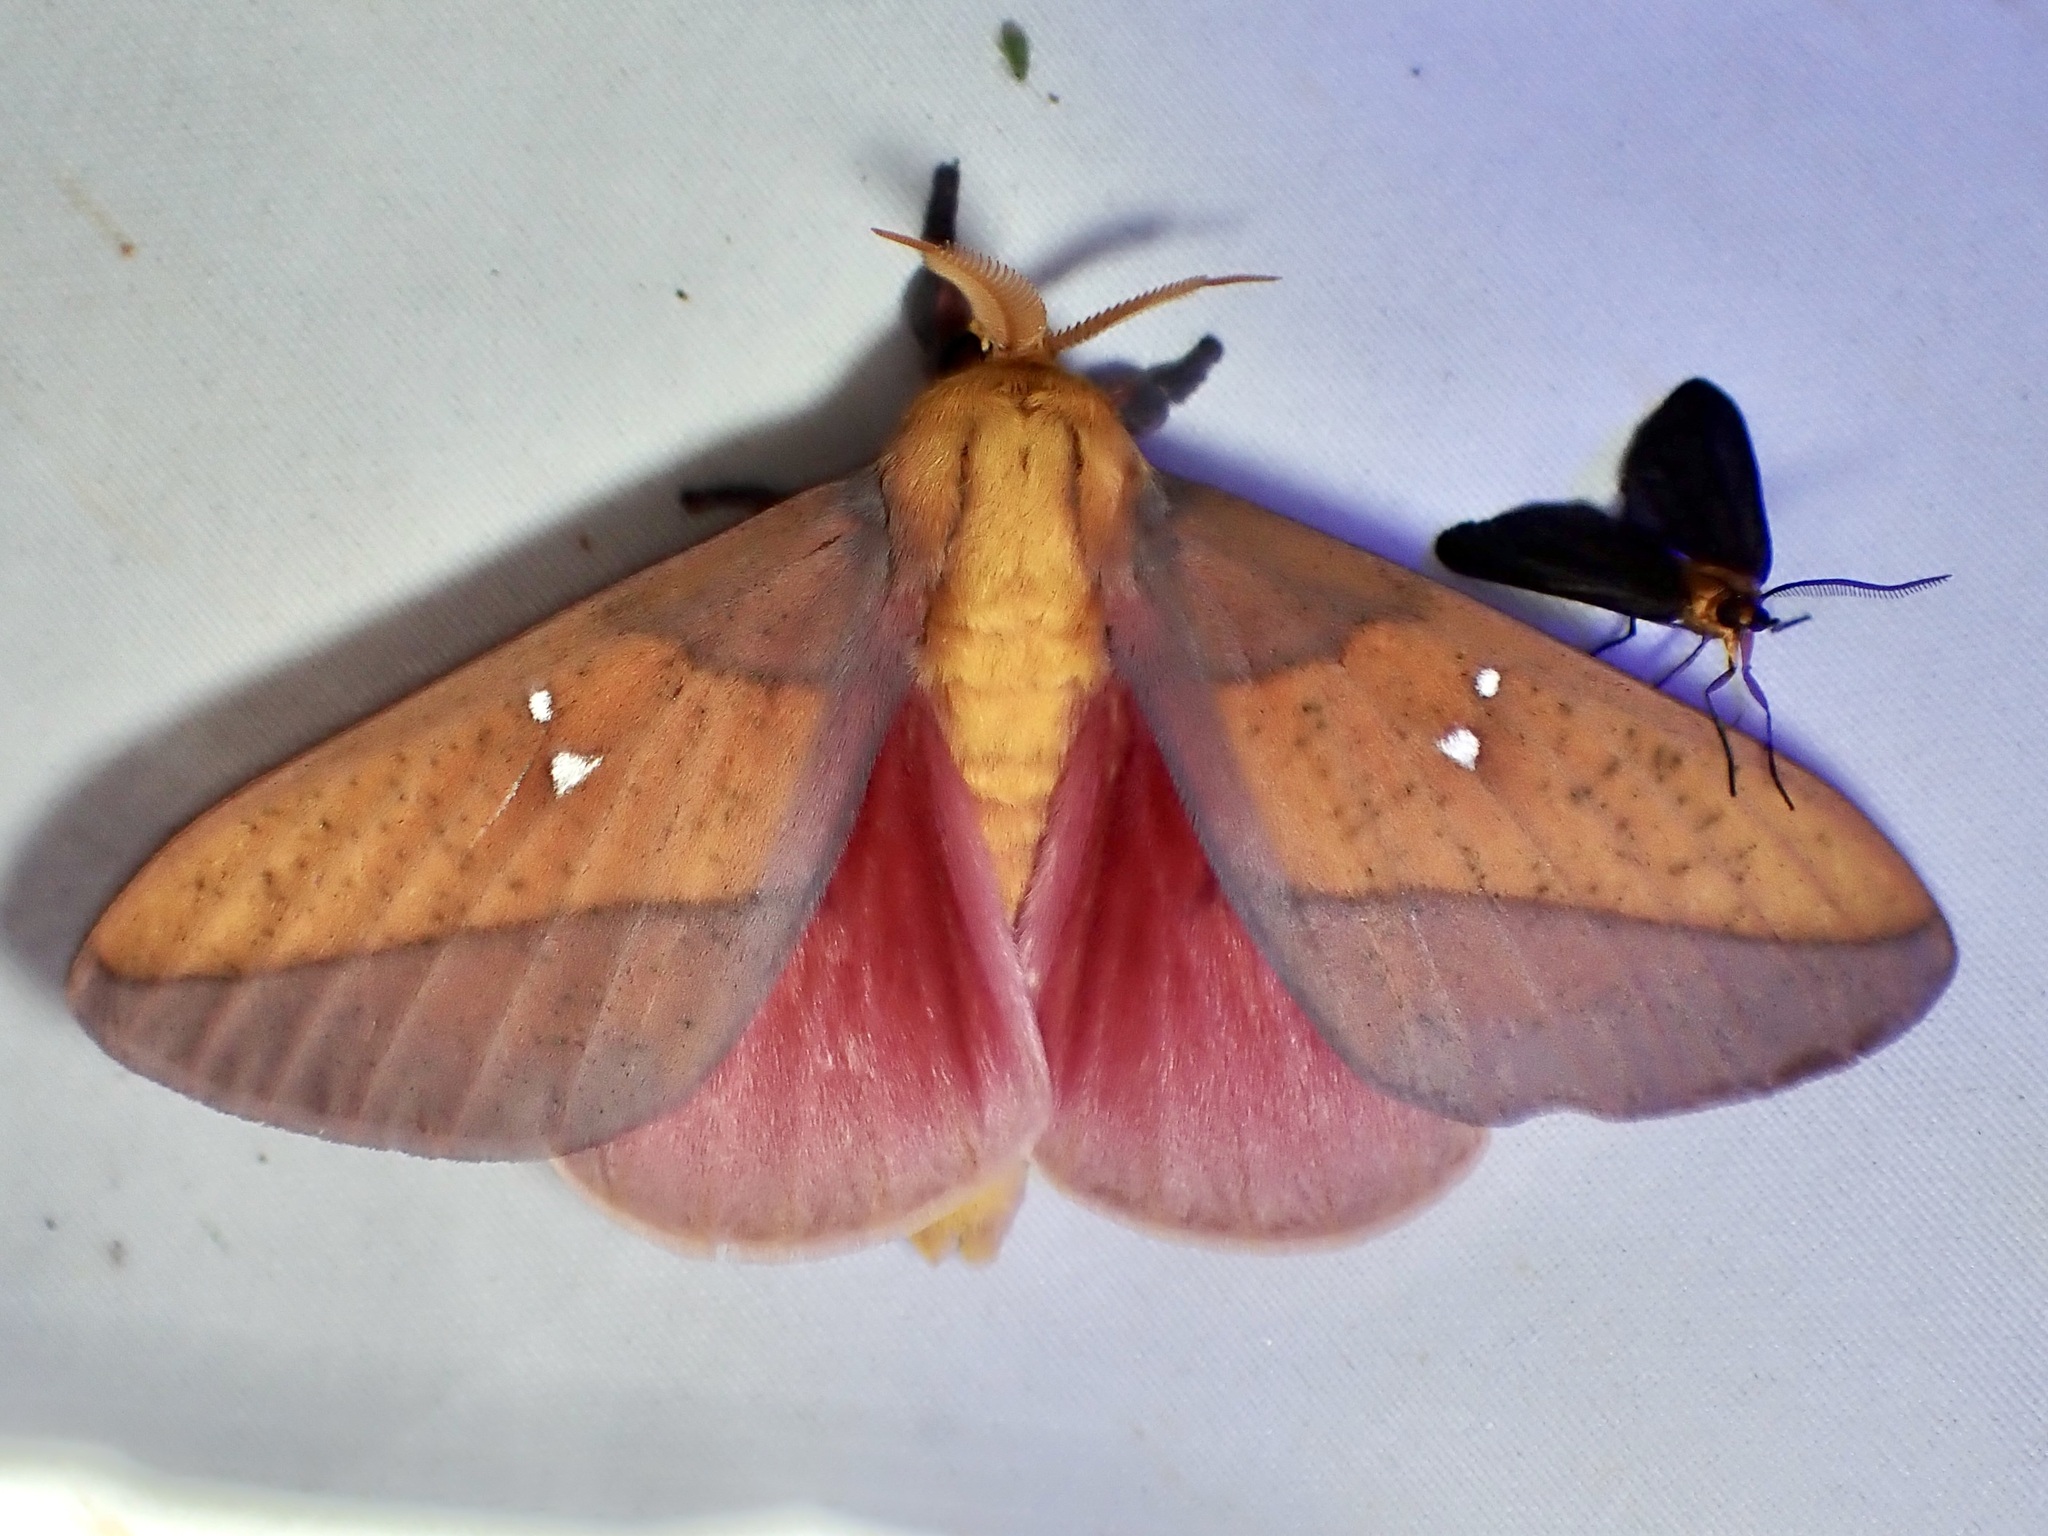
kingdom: Animalia
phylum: Arthropoda
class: Insecta
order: Lepidoptera
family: Saturniidae
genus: Syssphinx
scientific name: Syssphinx montana
